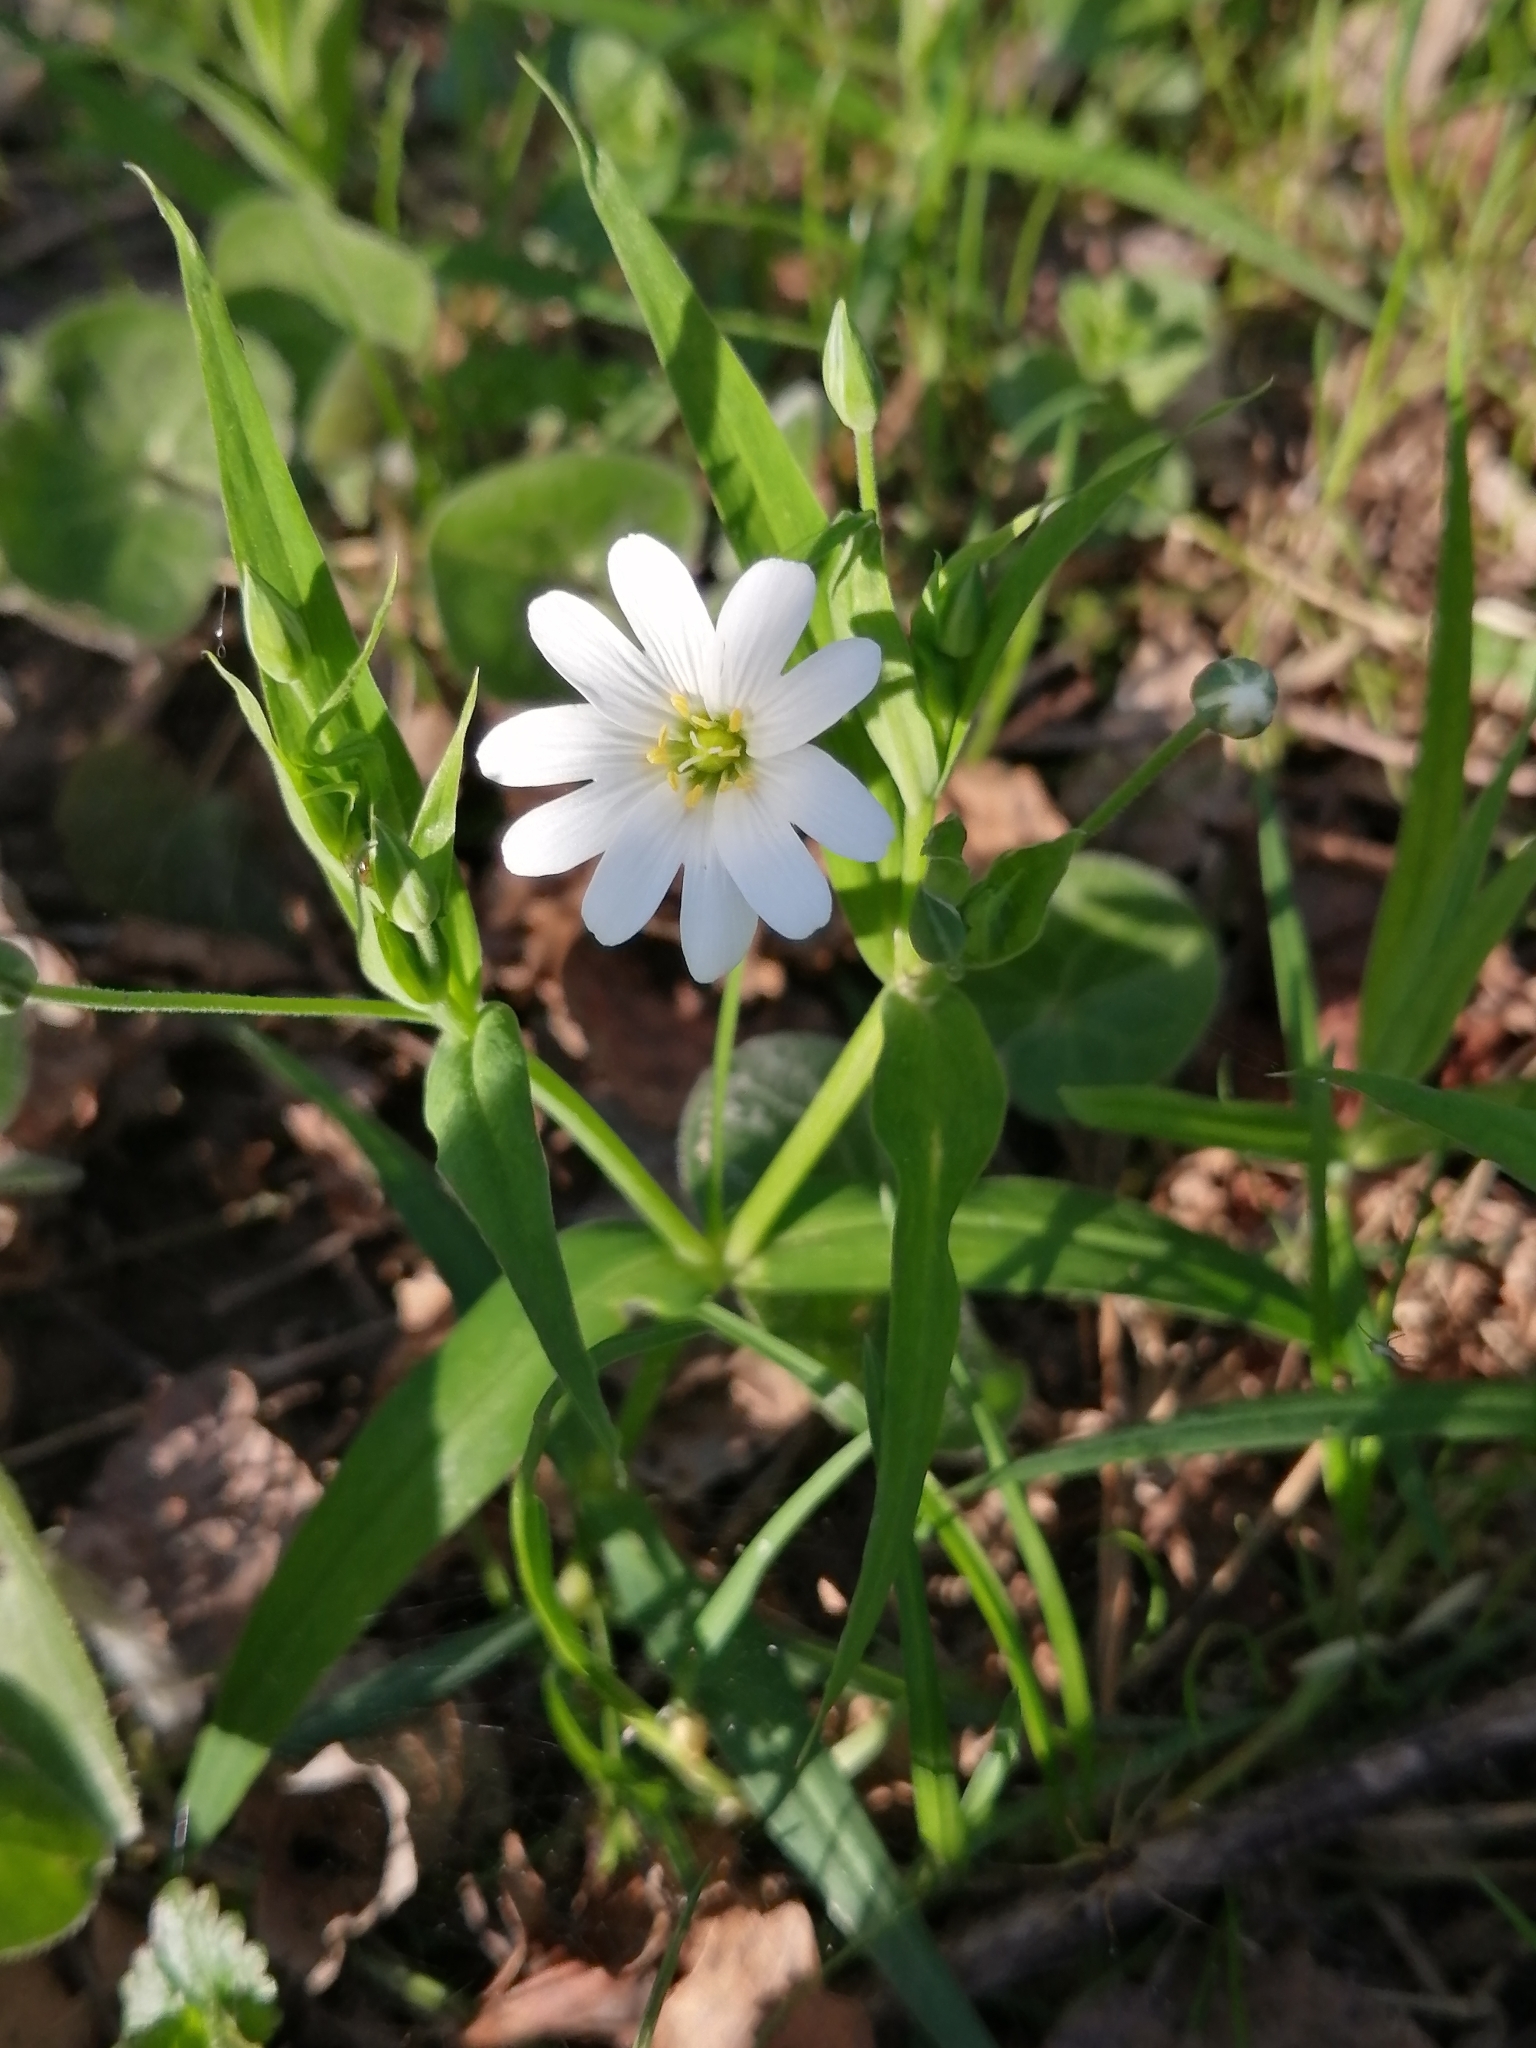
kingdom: Plantae
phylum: Tracheophyta
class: Magnoliopsida
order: Caryophyllales
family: Caryophyllaceae
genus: Rabelera
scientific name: Rabelera holostea
